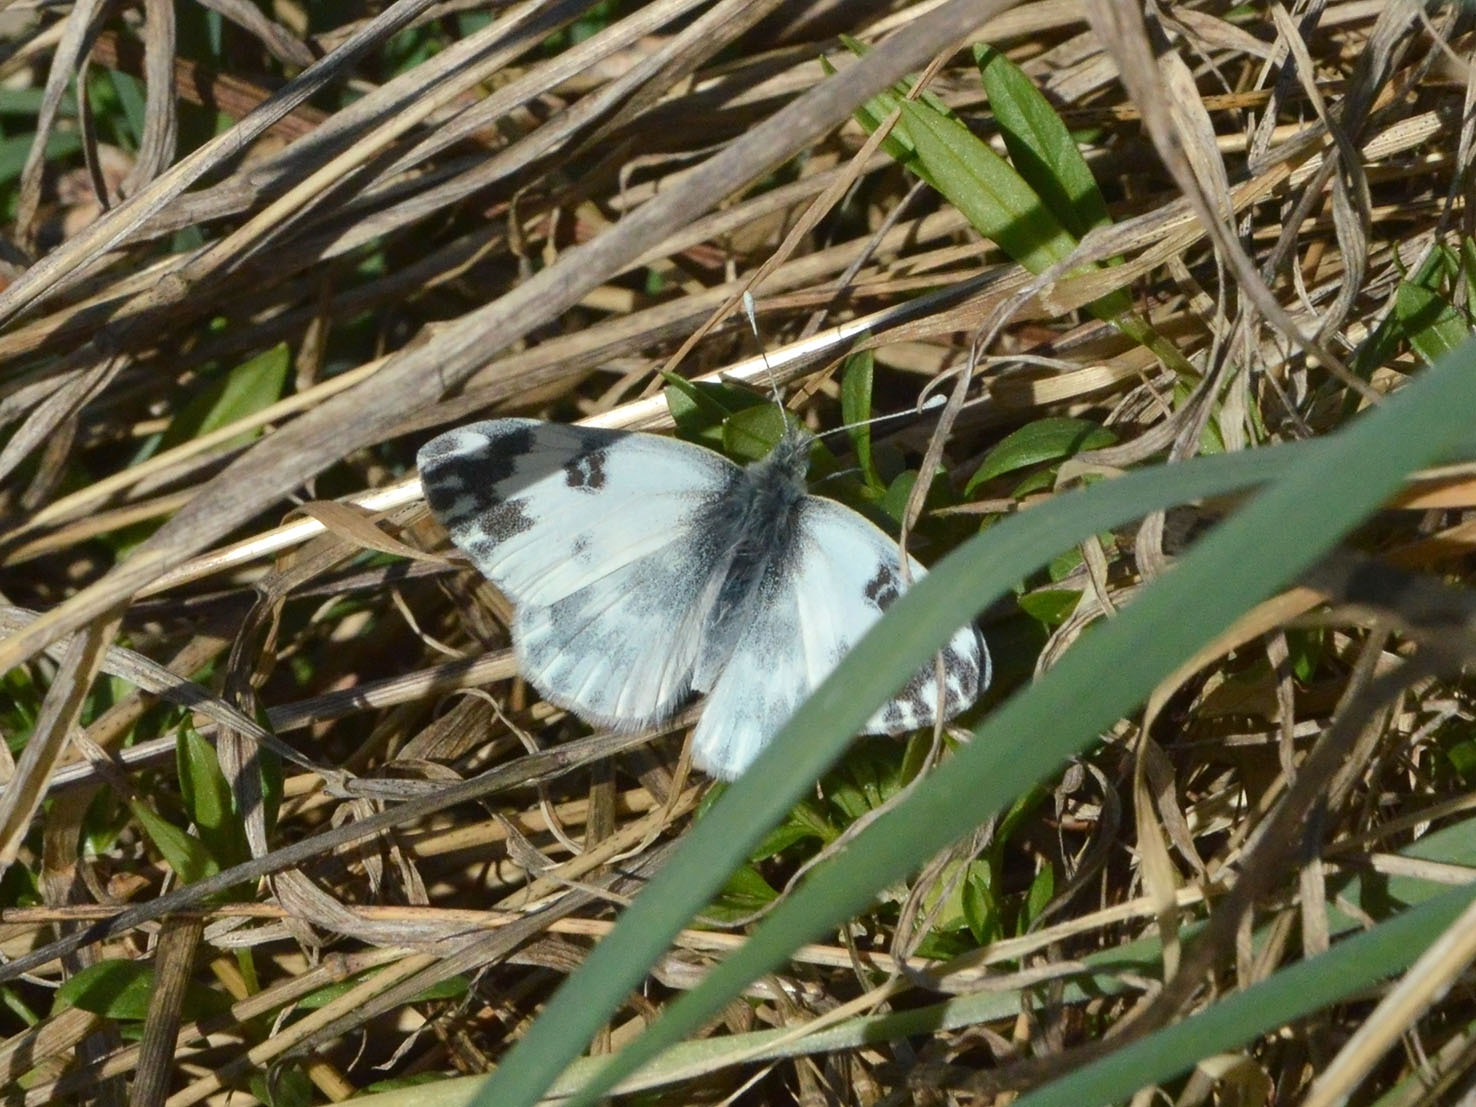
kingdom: Animalia
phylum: Arthropoda
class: Insecta
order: Lepidoptera
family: Pieridae
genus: Pontia
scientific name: Pontia edusa
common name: Eastern bath white
